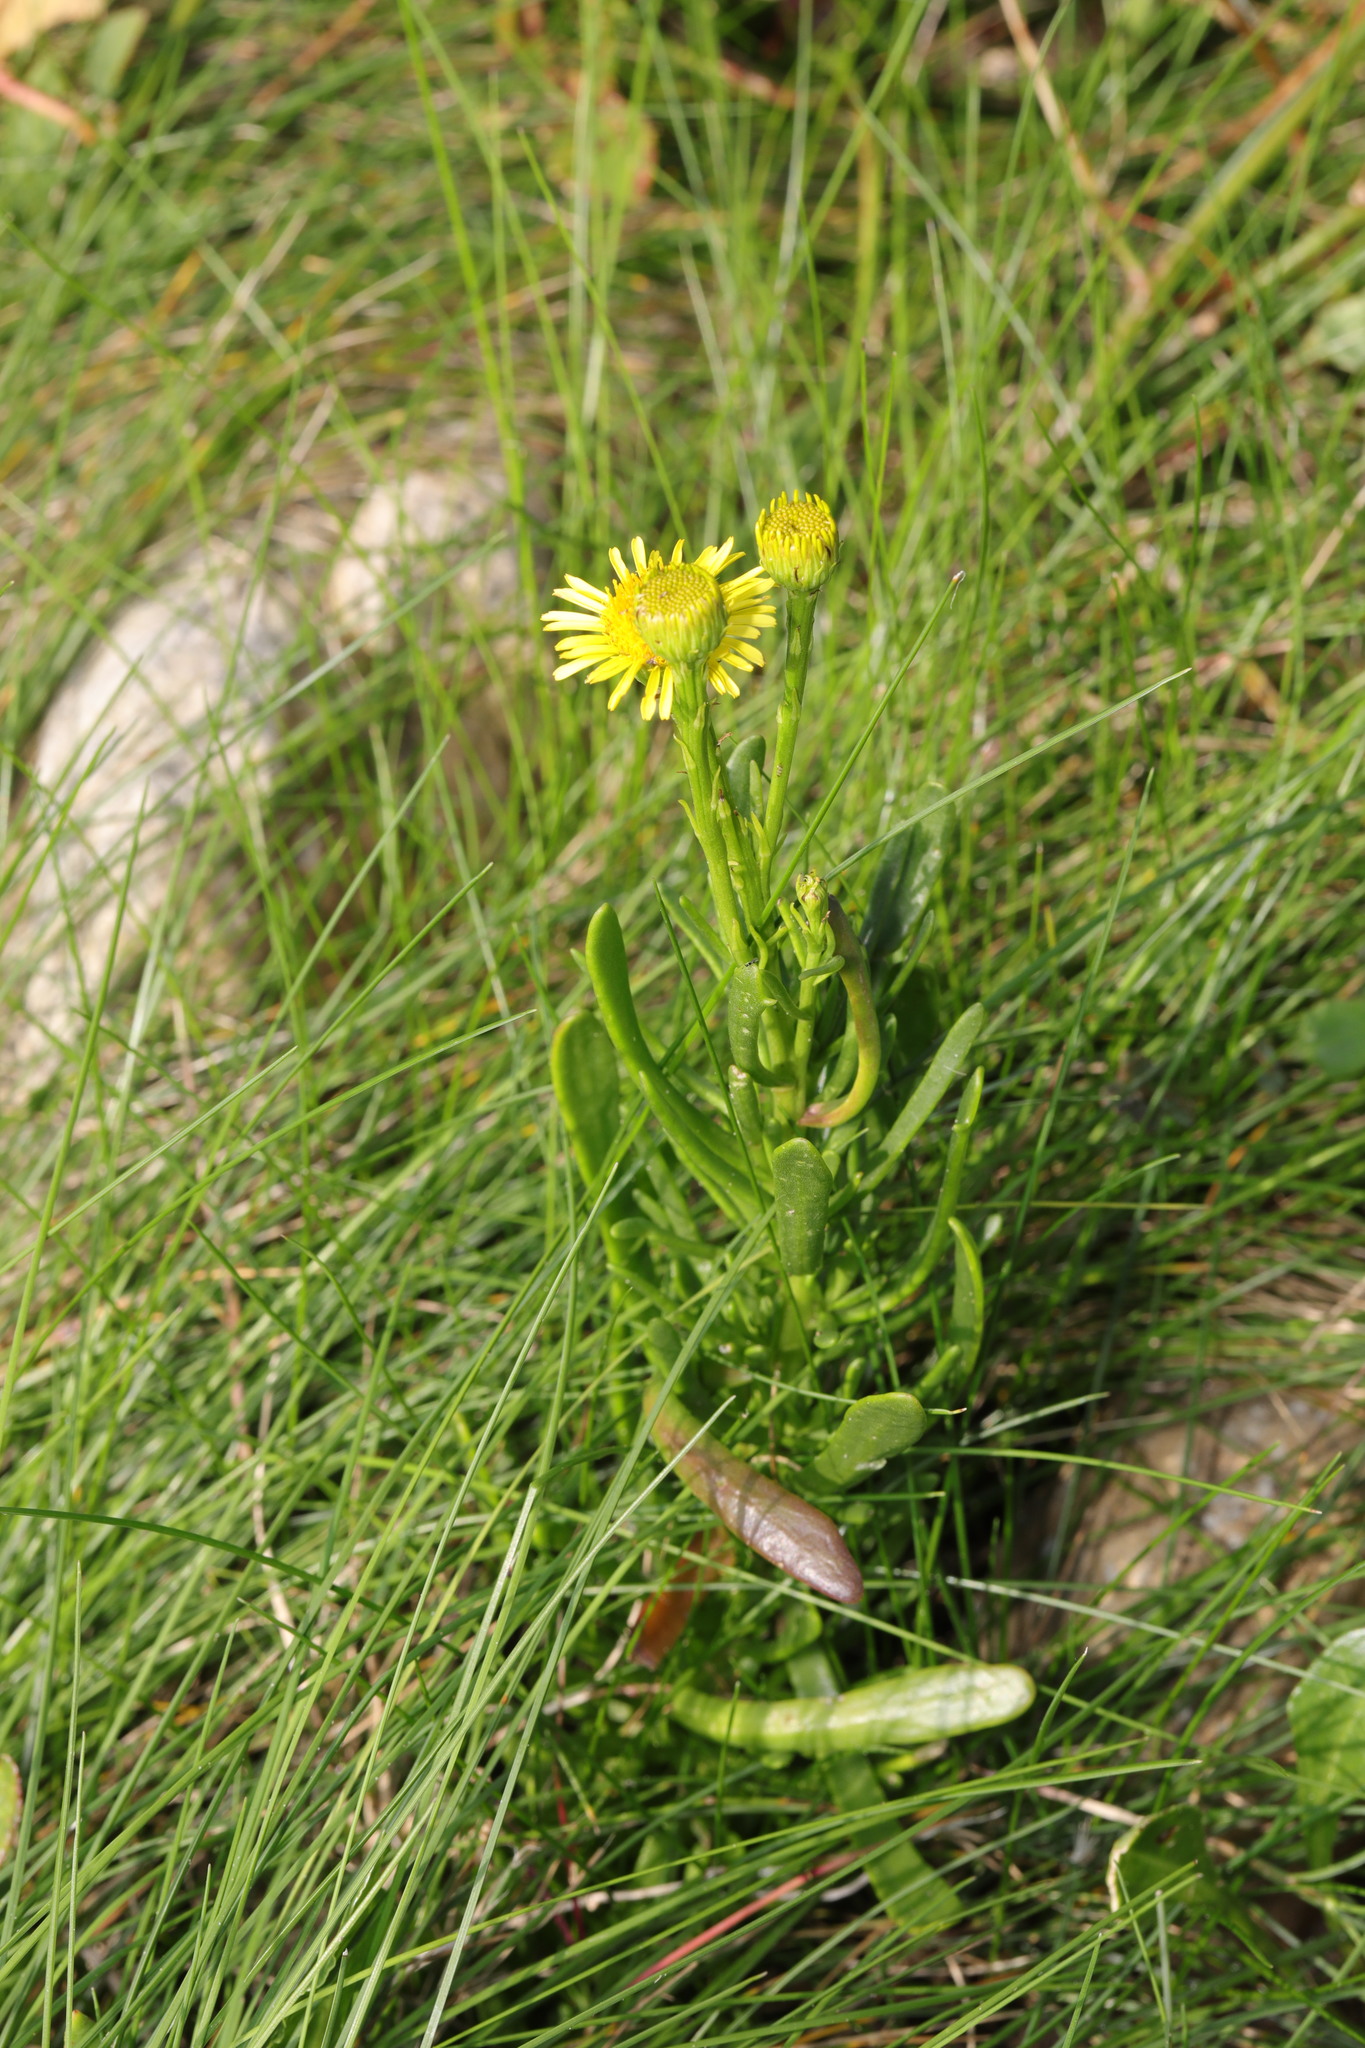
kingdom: Plantae
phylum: Tracheophyta
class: Magnoliopsida
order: Asterales
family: Asteraceae
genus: Limbarda
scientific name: Limbarda crithmoides
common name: Golden samphire
